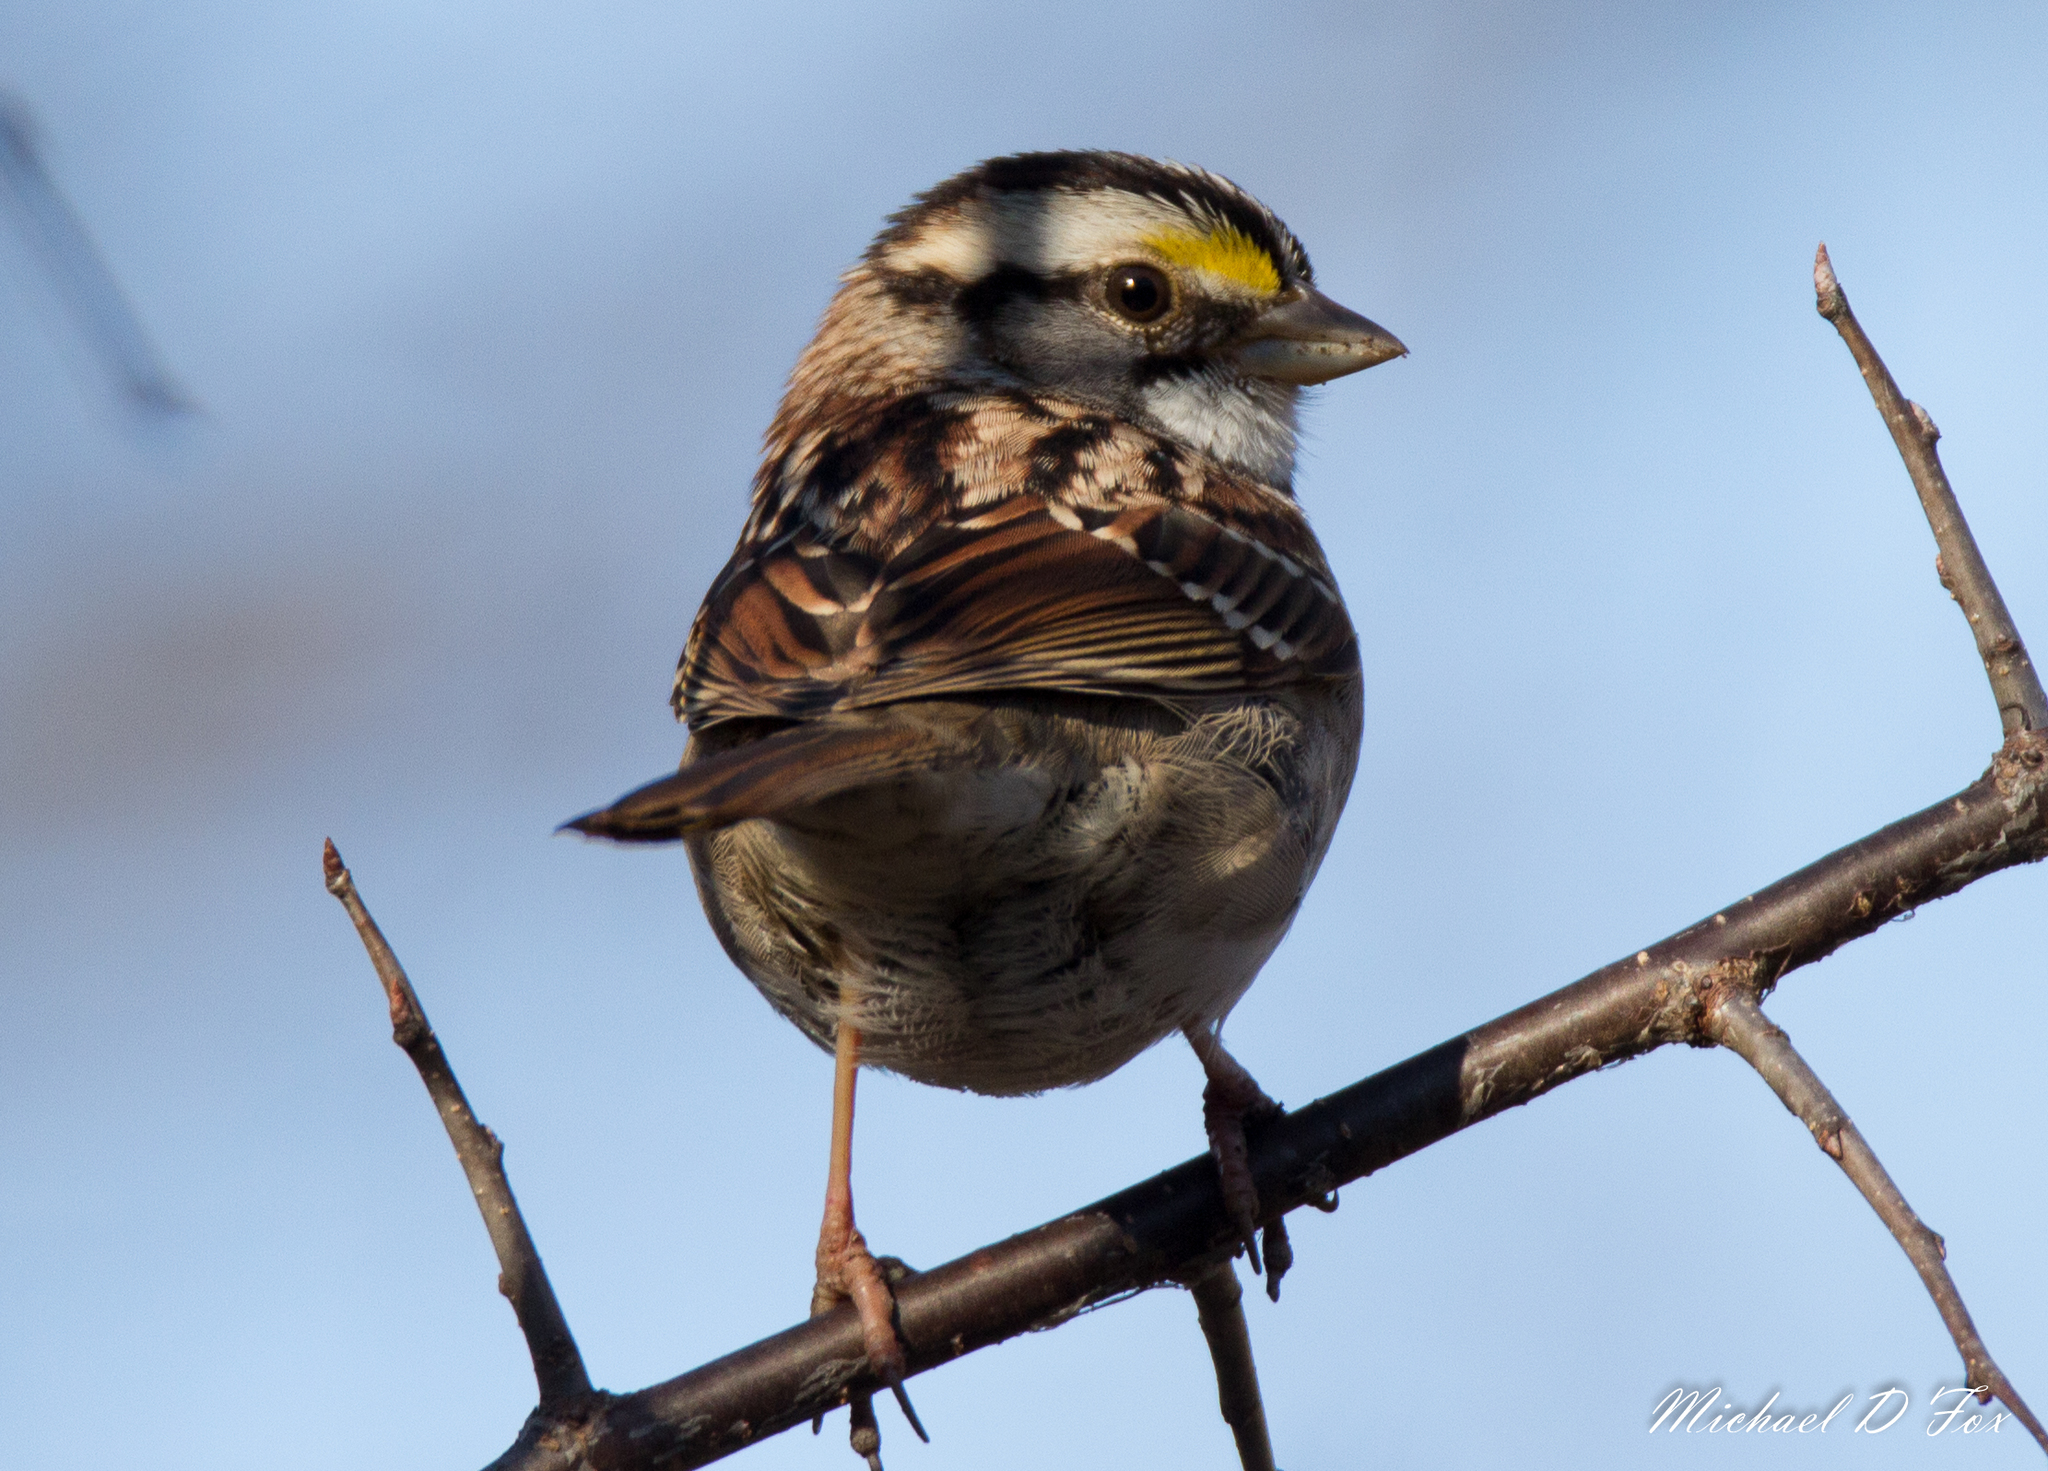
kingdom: Animalia
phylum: Chordata
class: Aves
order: Passeriformes
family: Passerellidae
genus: Zonotrichia
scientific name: Zonotrichia albicollis
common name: White-throated sparrow
